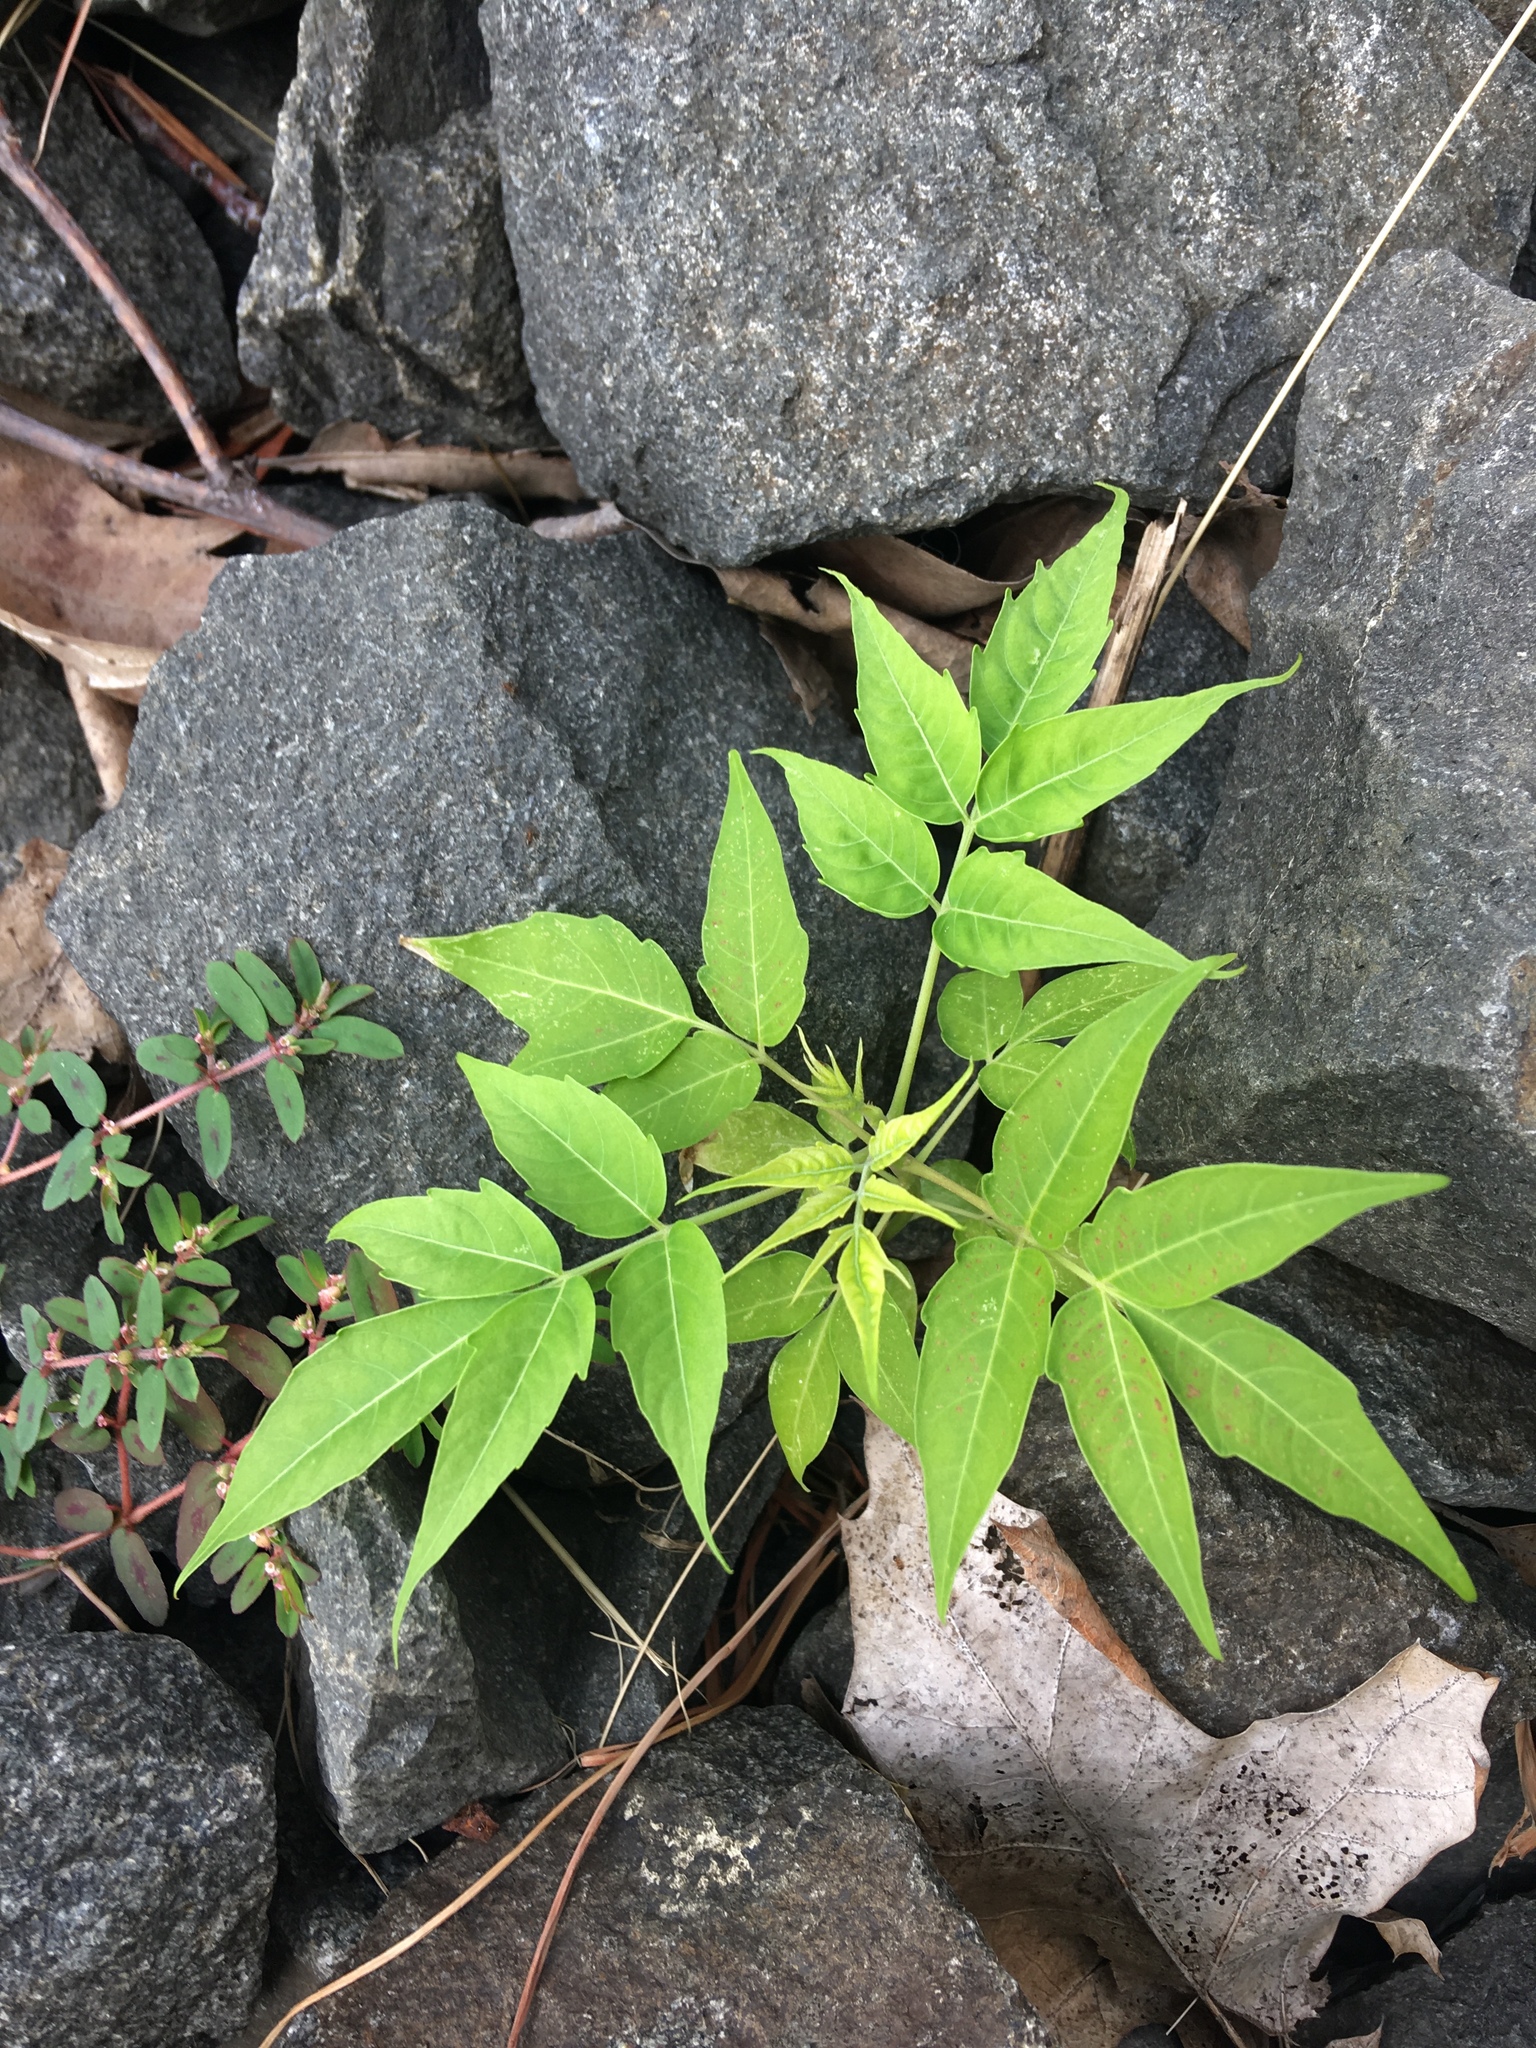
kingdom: Plantae
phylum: Tracheophyta
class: Magnoliopsida
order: Sapindales
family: Simaroubaceae
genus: Ailanthus
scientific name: Ailanthus altissima
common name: Tree-of-heaven
